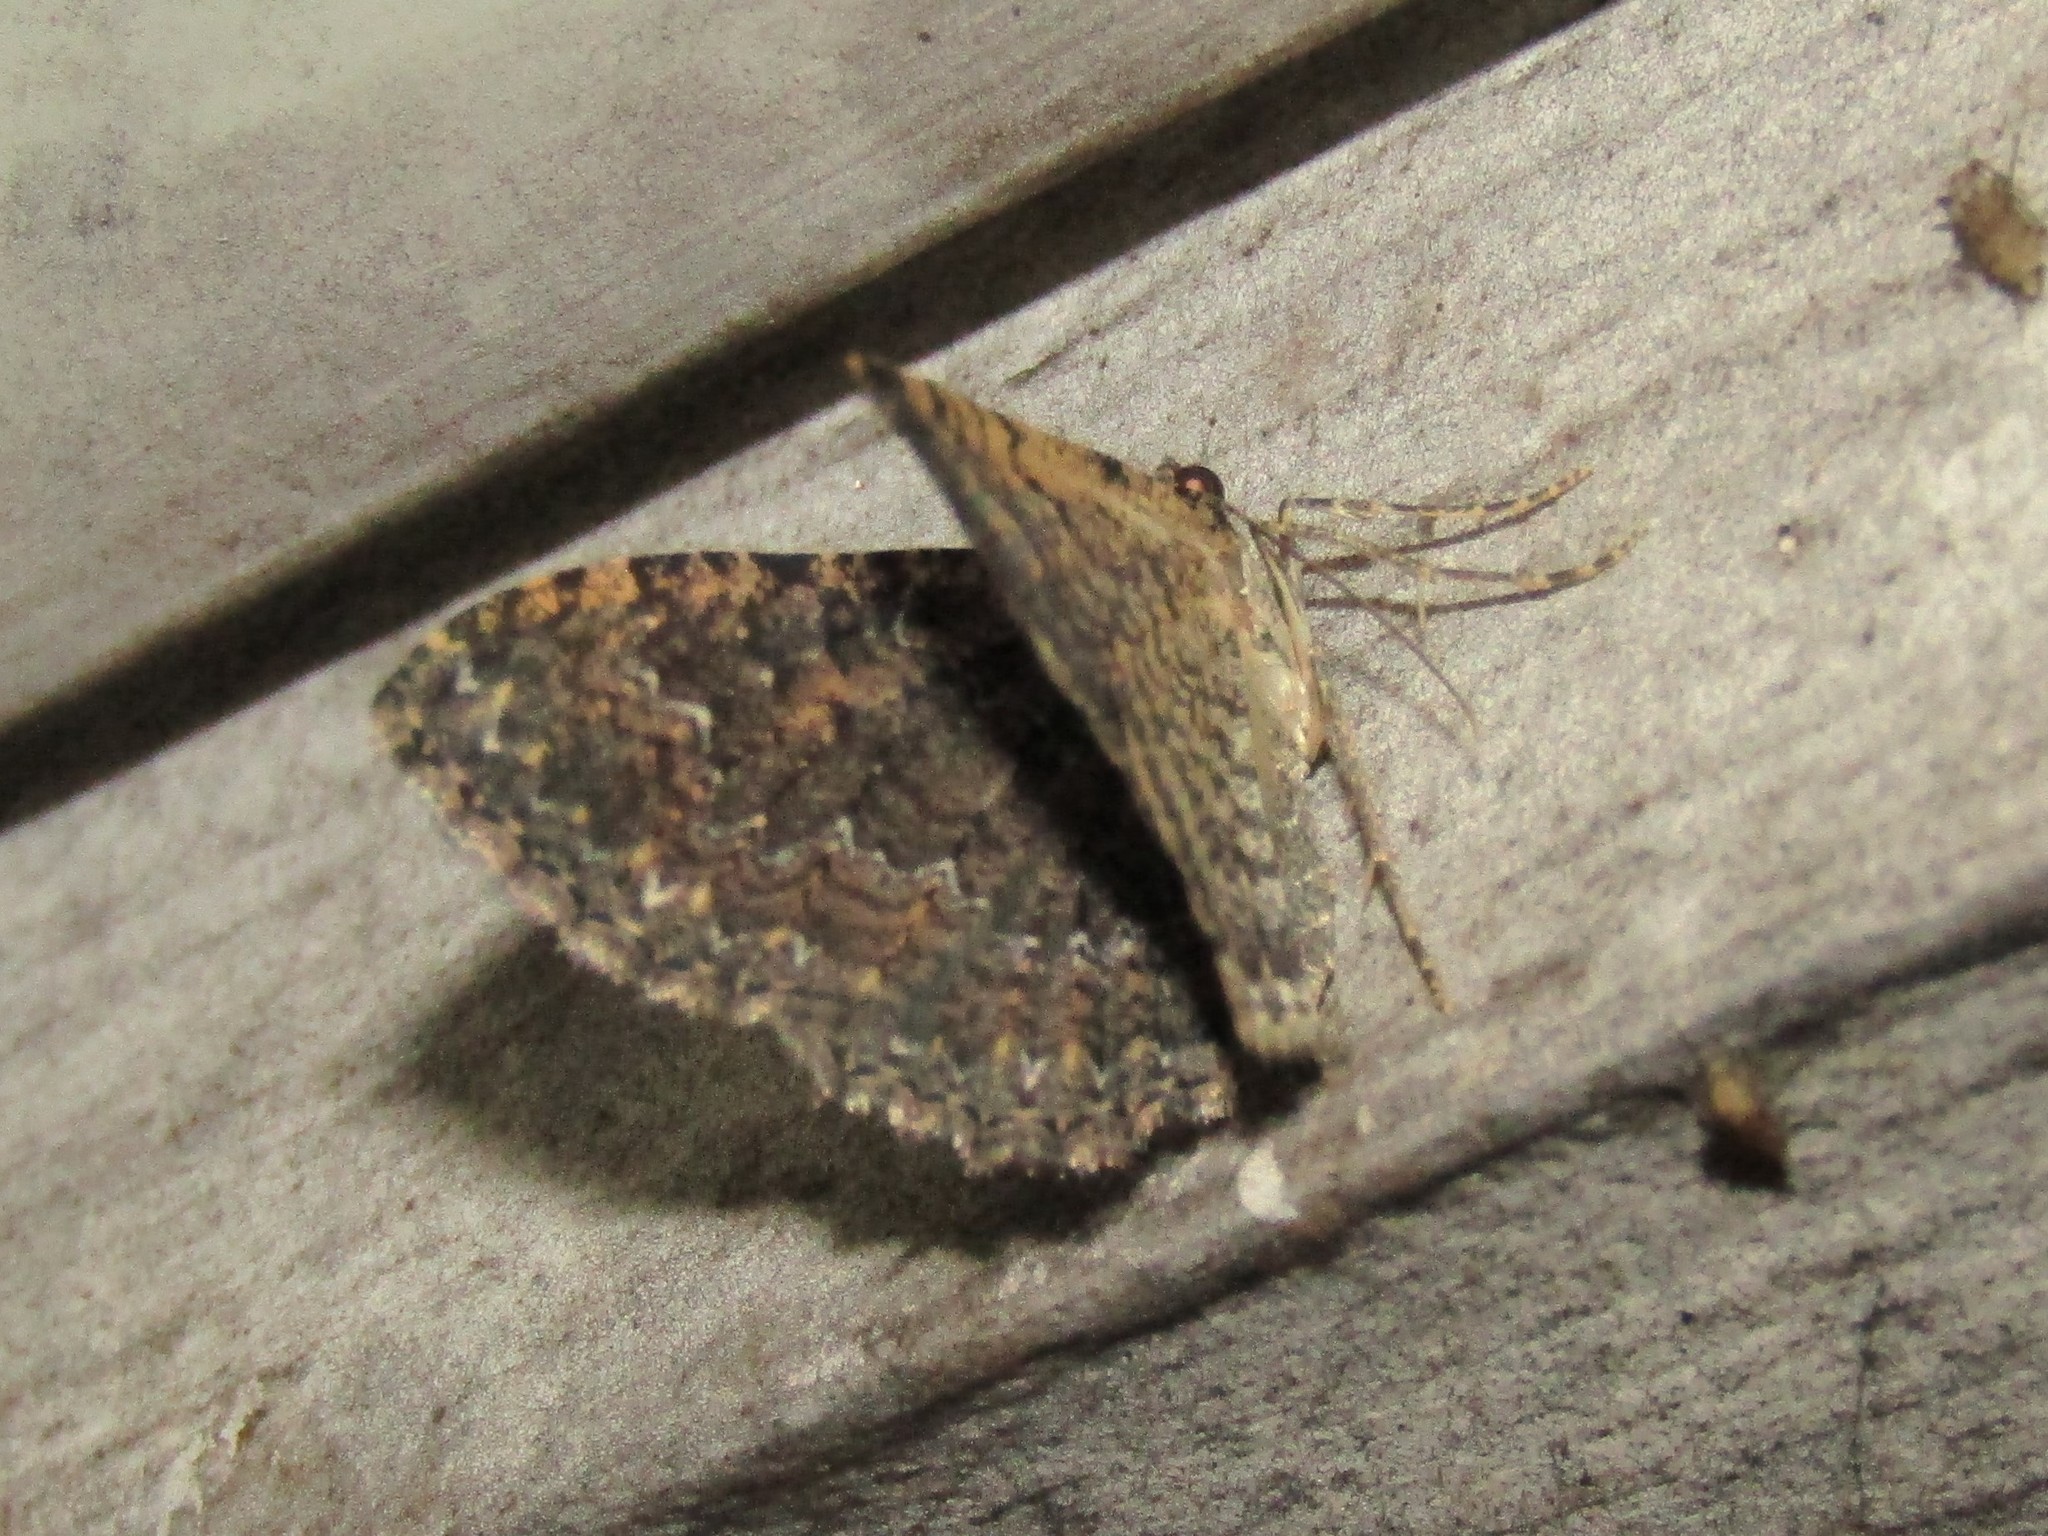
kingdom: Animalia
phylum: Arthropoda
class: Insecta
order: Lepidoptera
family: Geometridae
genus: Disclisioprocta
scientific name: Disclisioprocta stellata
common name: Somber carpet
